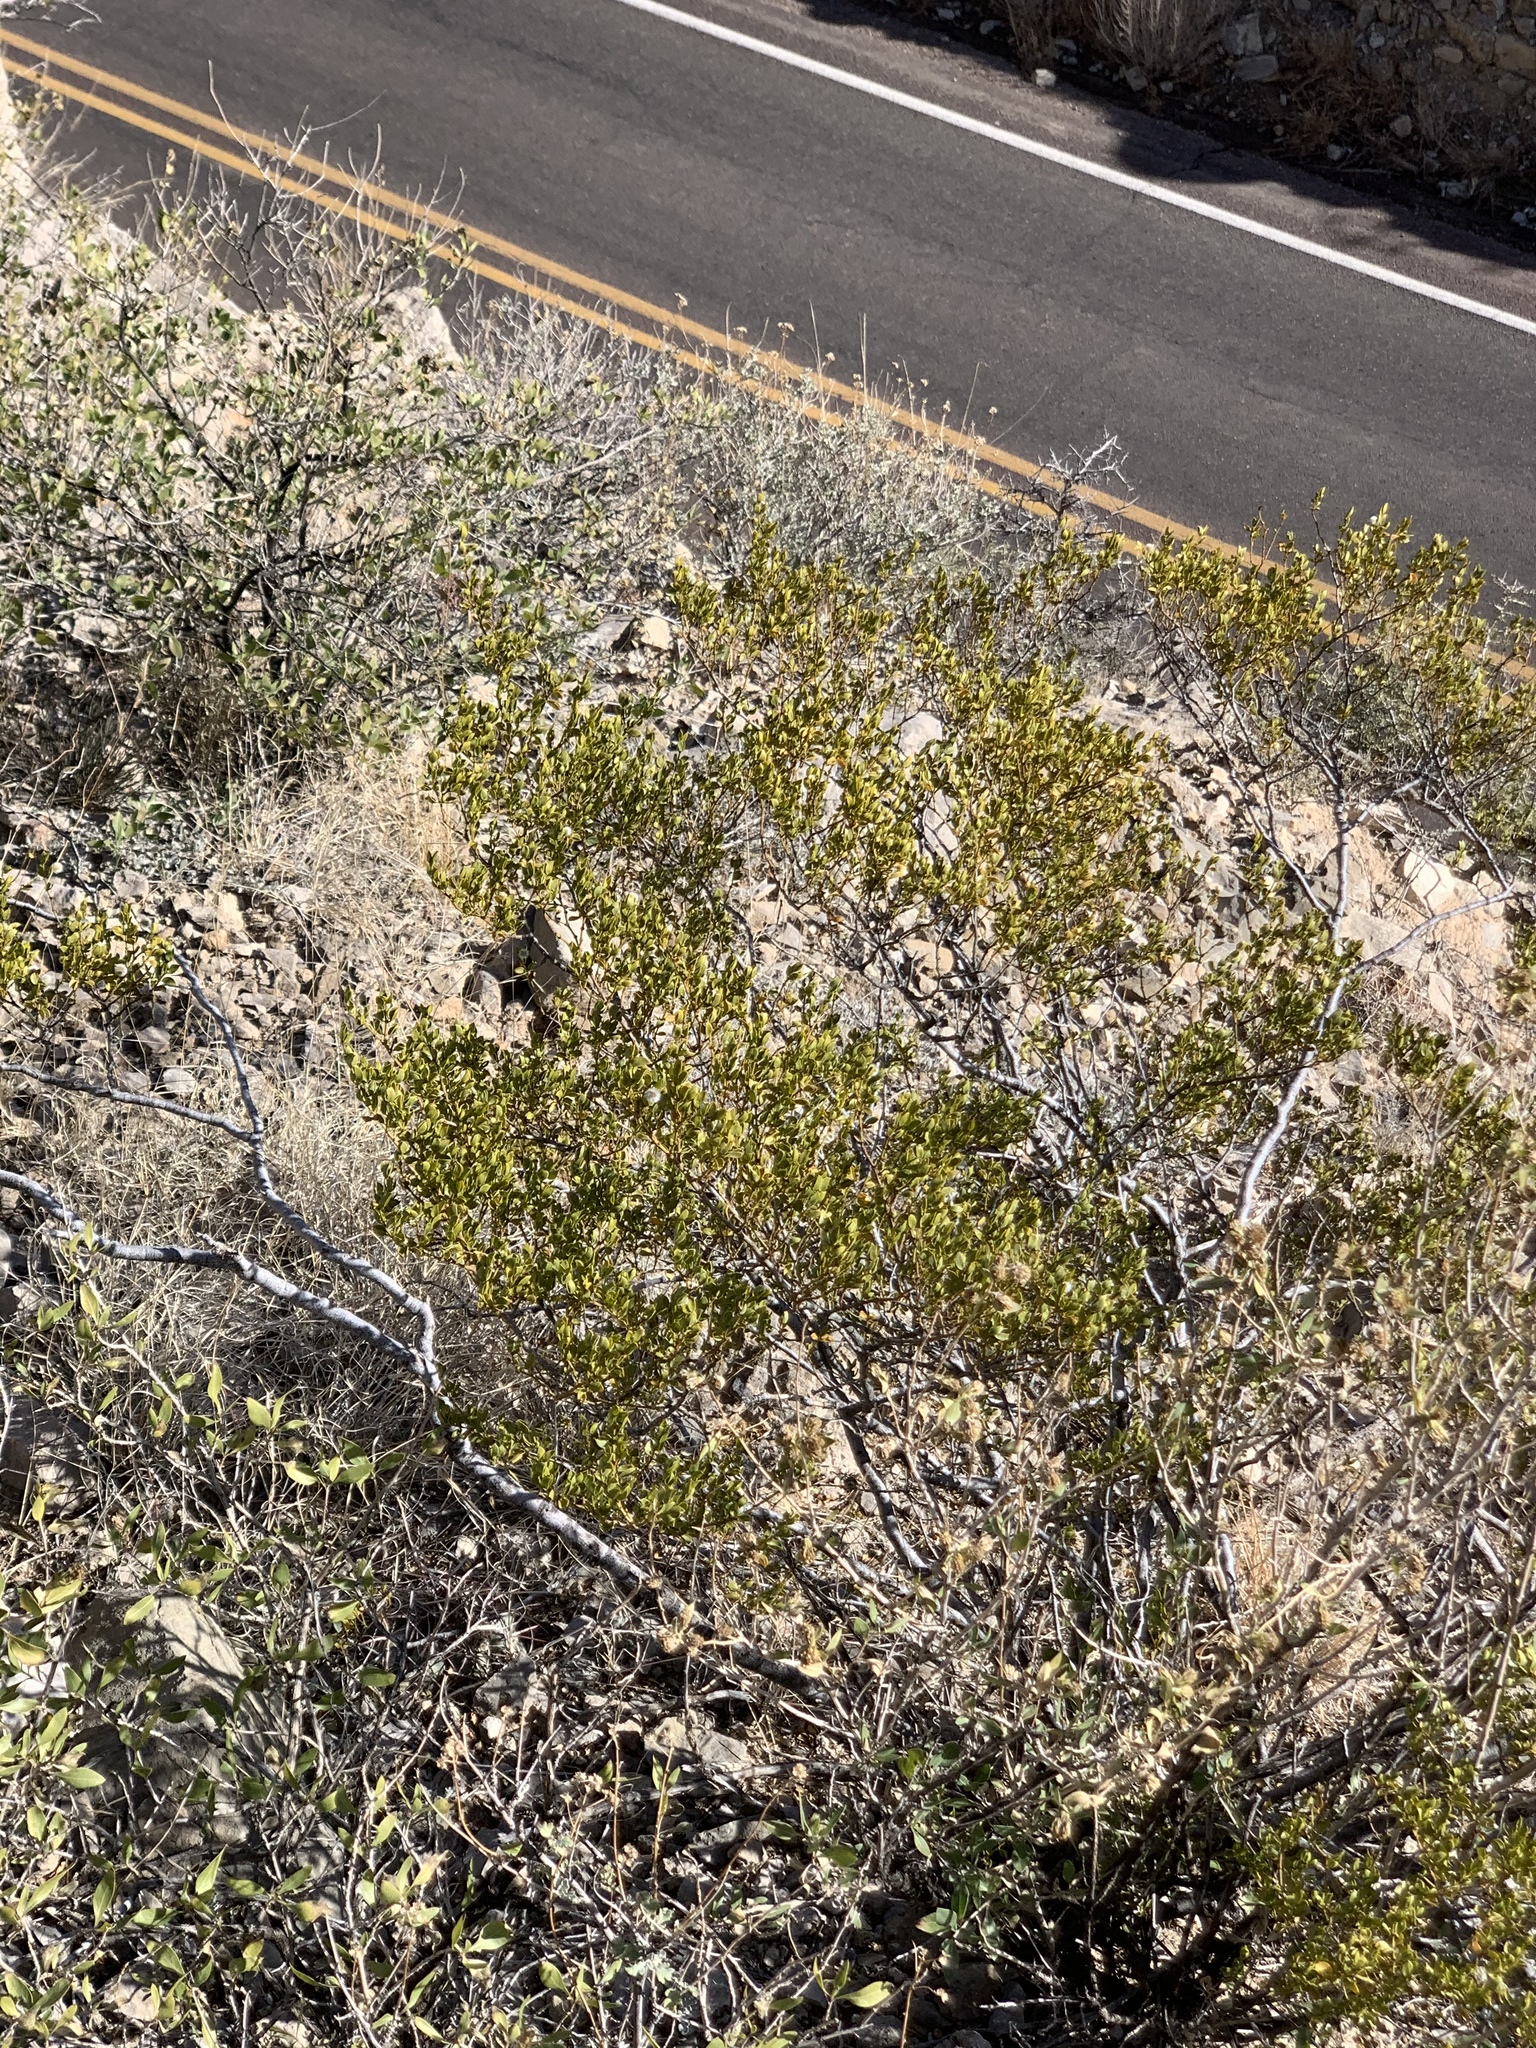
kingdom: Plantae
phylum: Tracheophyta
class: Magnoliopsida
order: Zygophyllales
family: Zygophyllaceae
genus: Larrea
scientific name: Larrea tridentata
